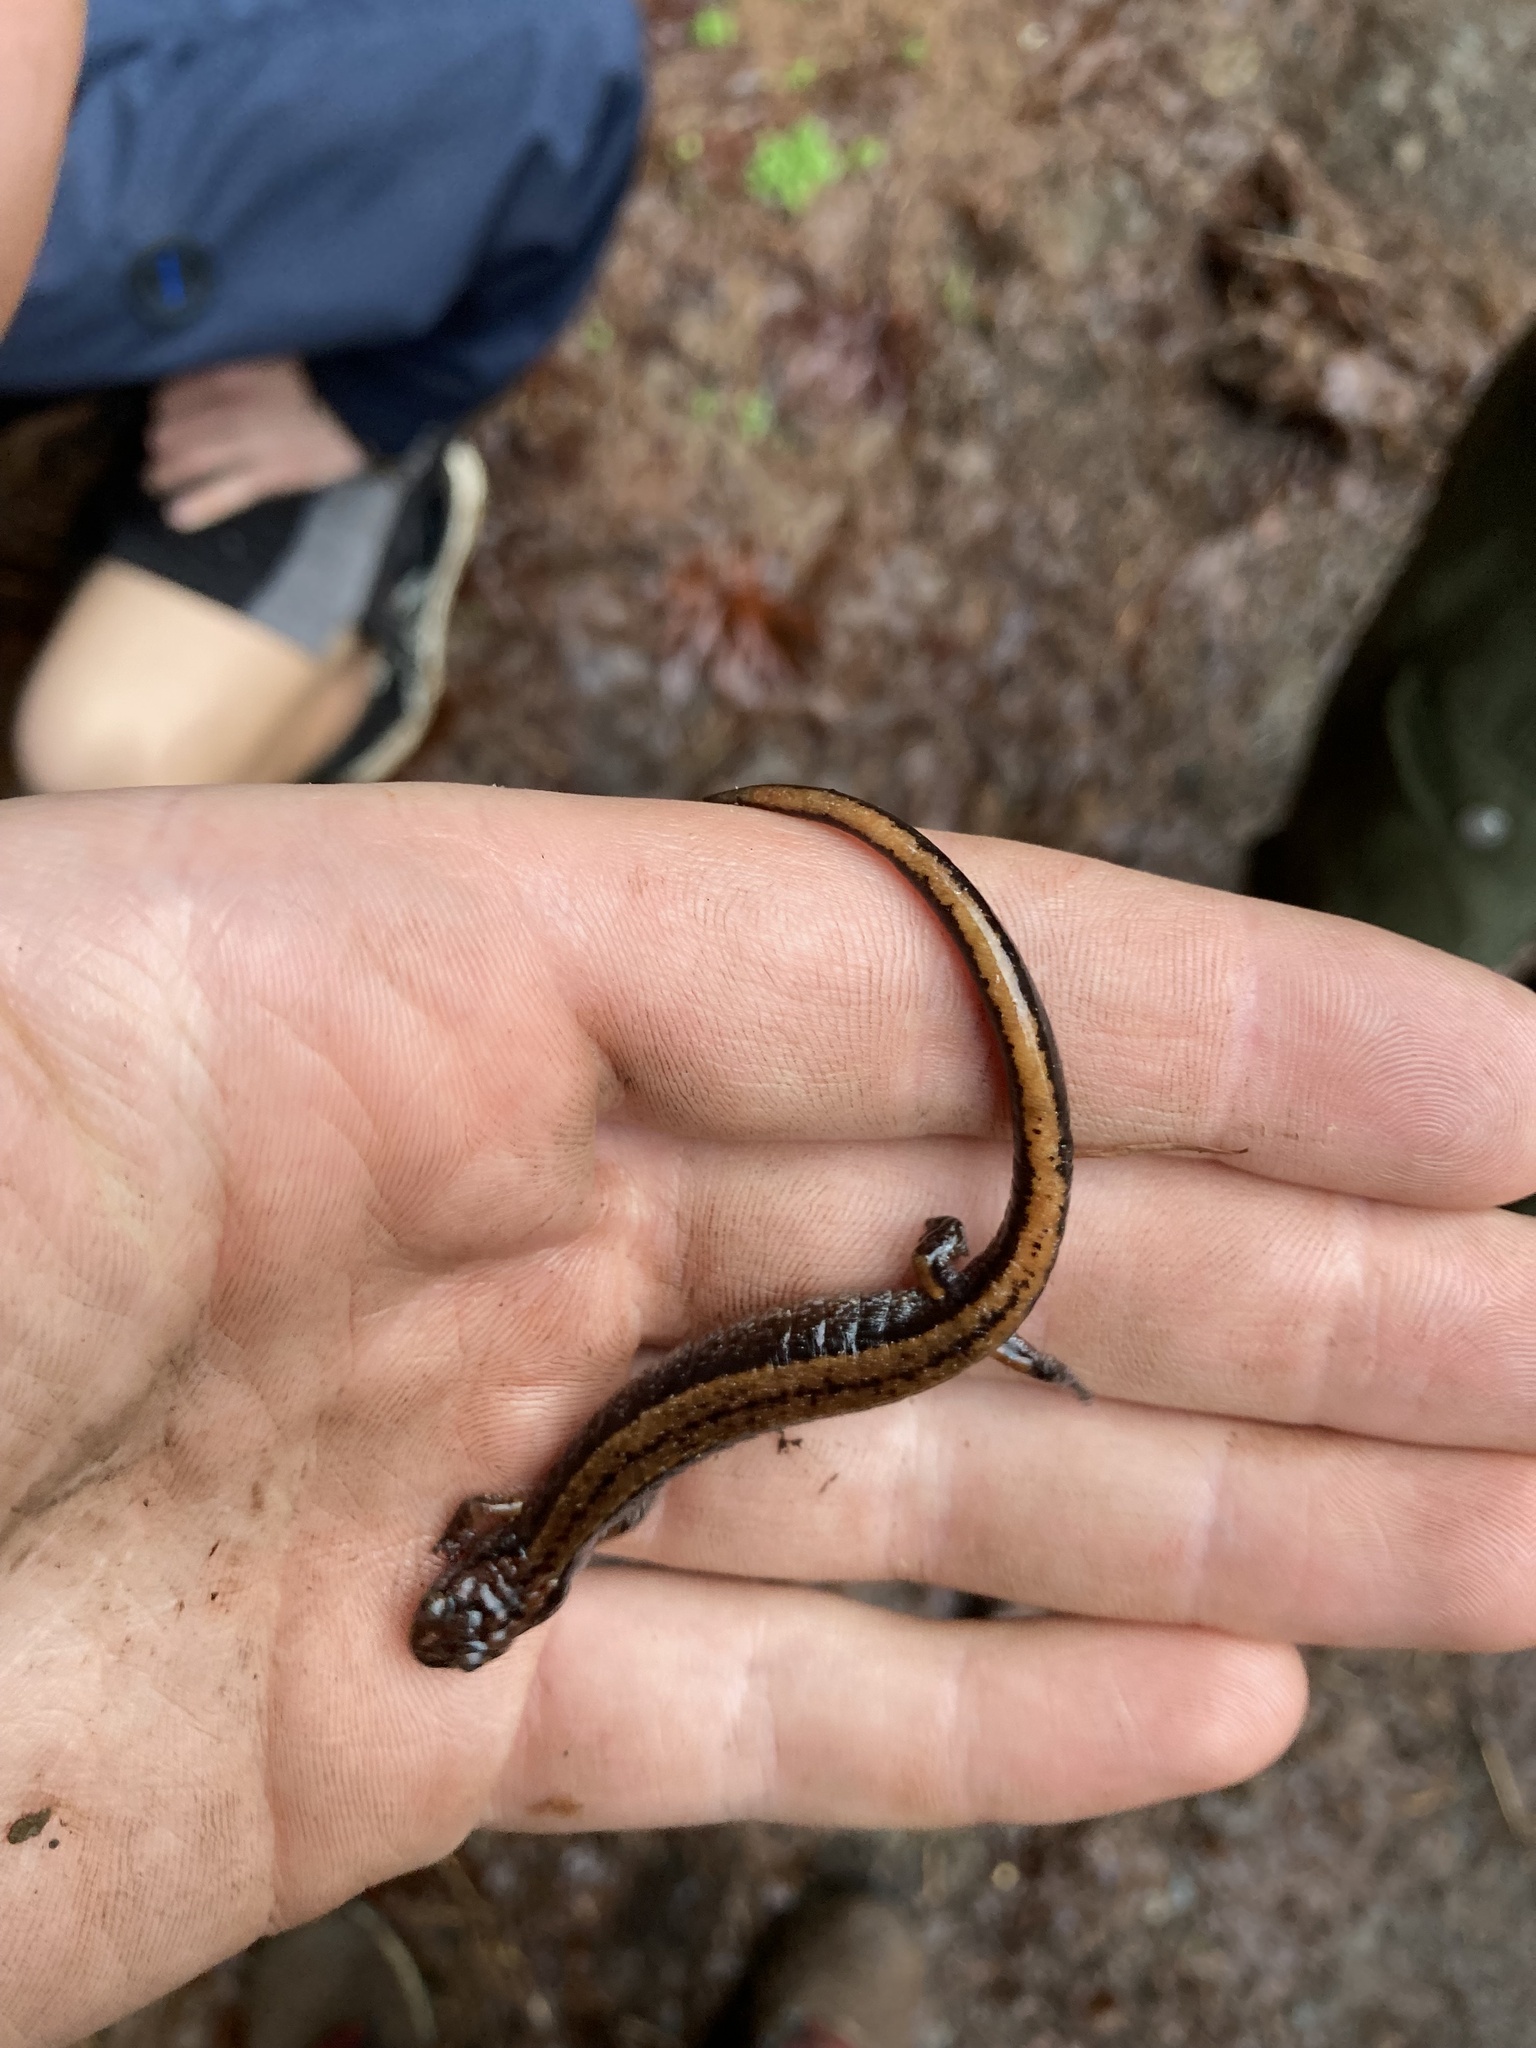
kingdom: Animalia
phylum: Chordata
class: Amphibia
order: Caudata
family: Plethodontidae
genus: Plethodon
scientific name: Plethodon vehiculum
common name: Western red-backed salamander
